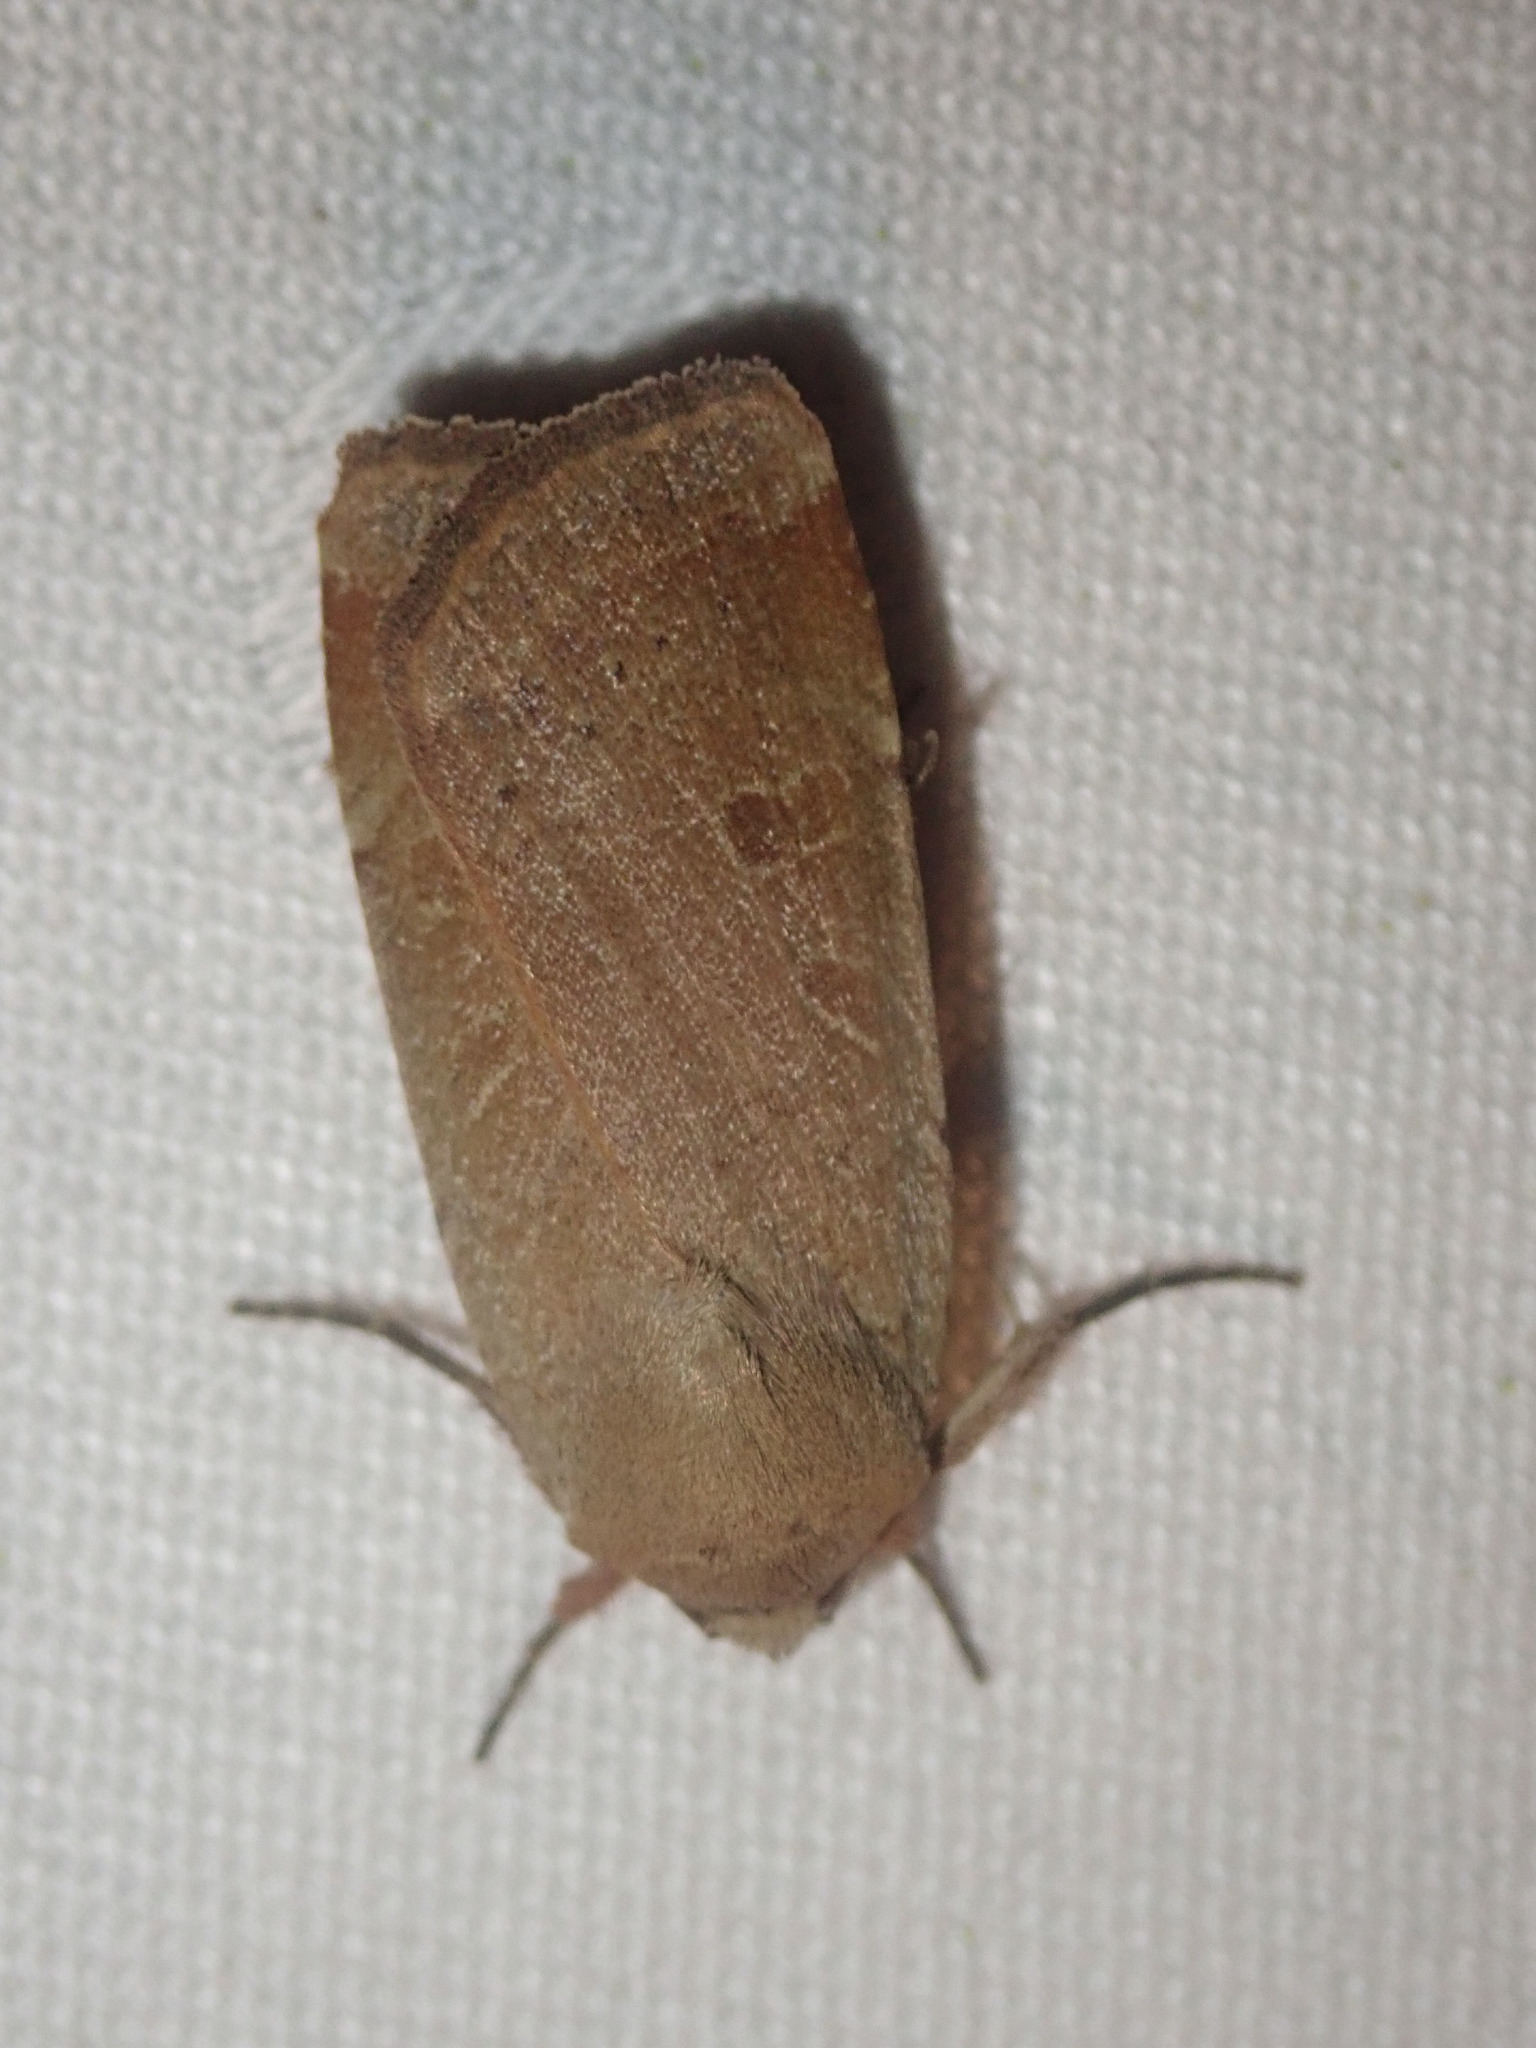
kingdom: Animalia
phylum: Arthropoda
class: Insecta
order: Lepidoptera
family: Noctuidae
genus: Noctua
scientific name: Noctua comes
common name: Lesser yellow underwing
